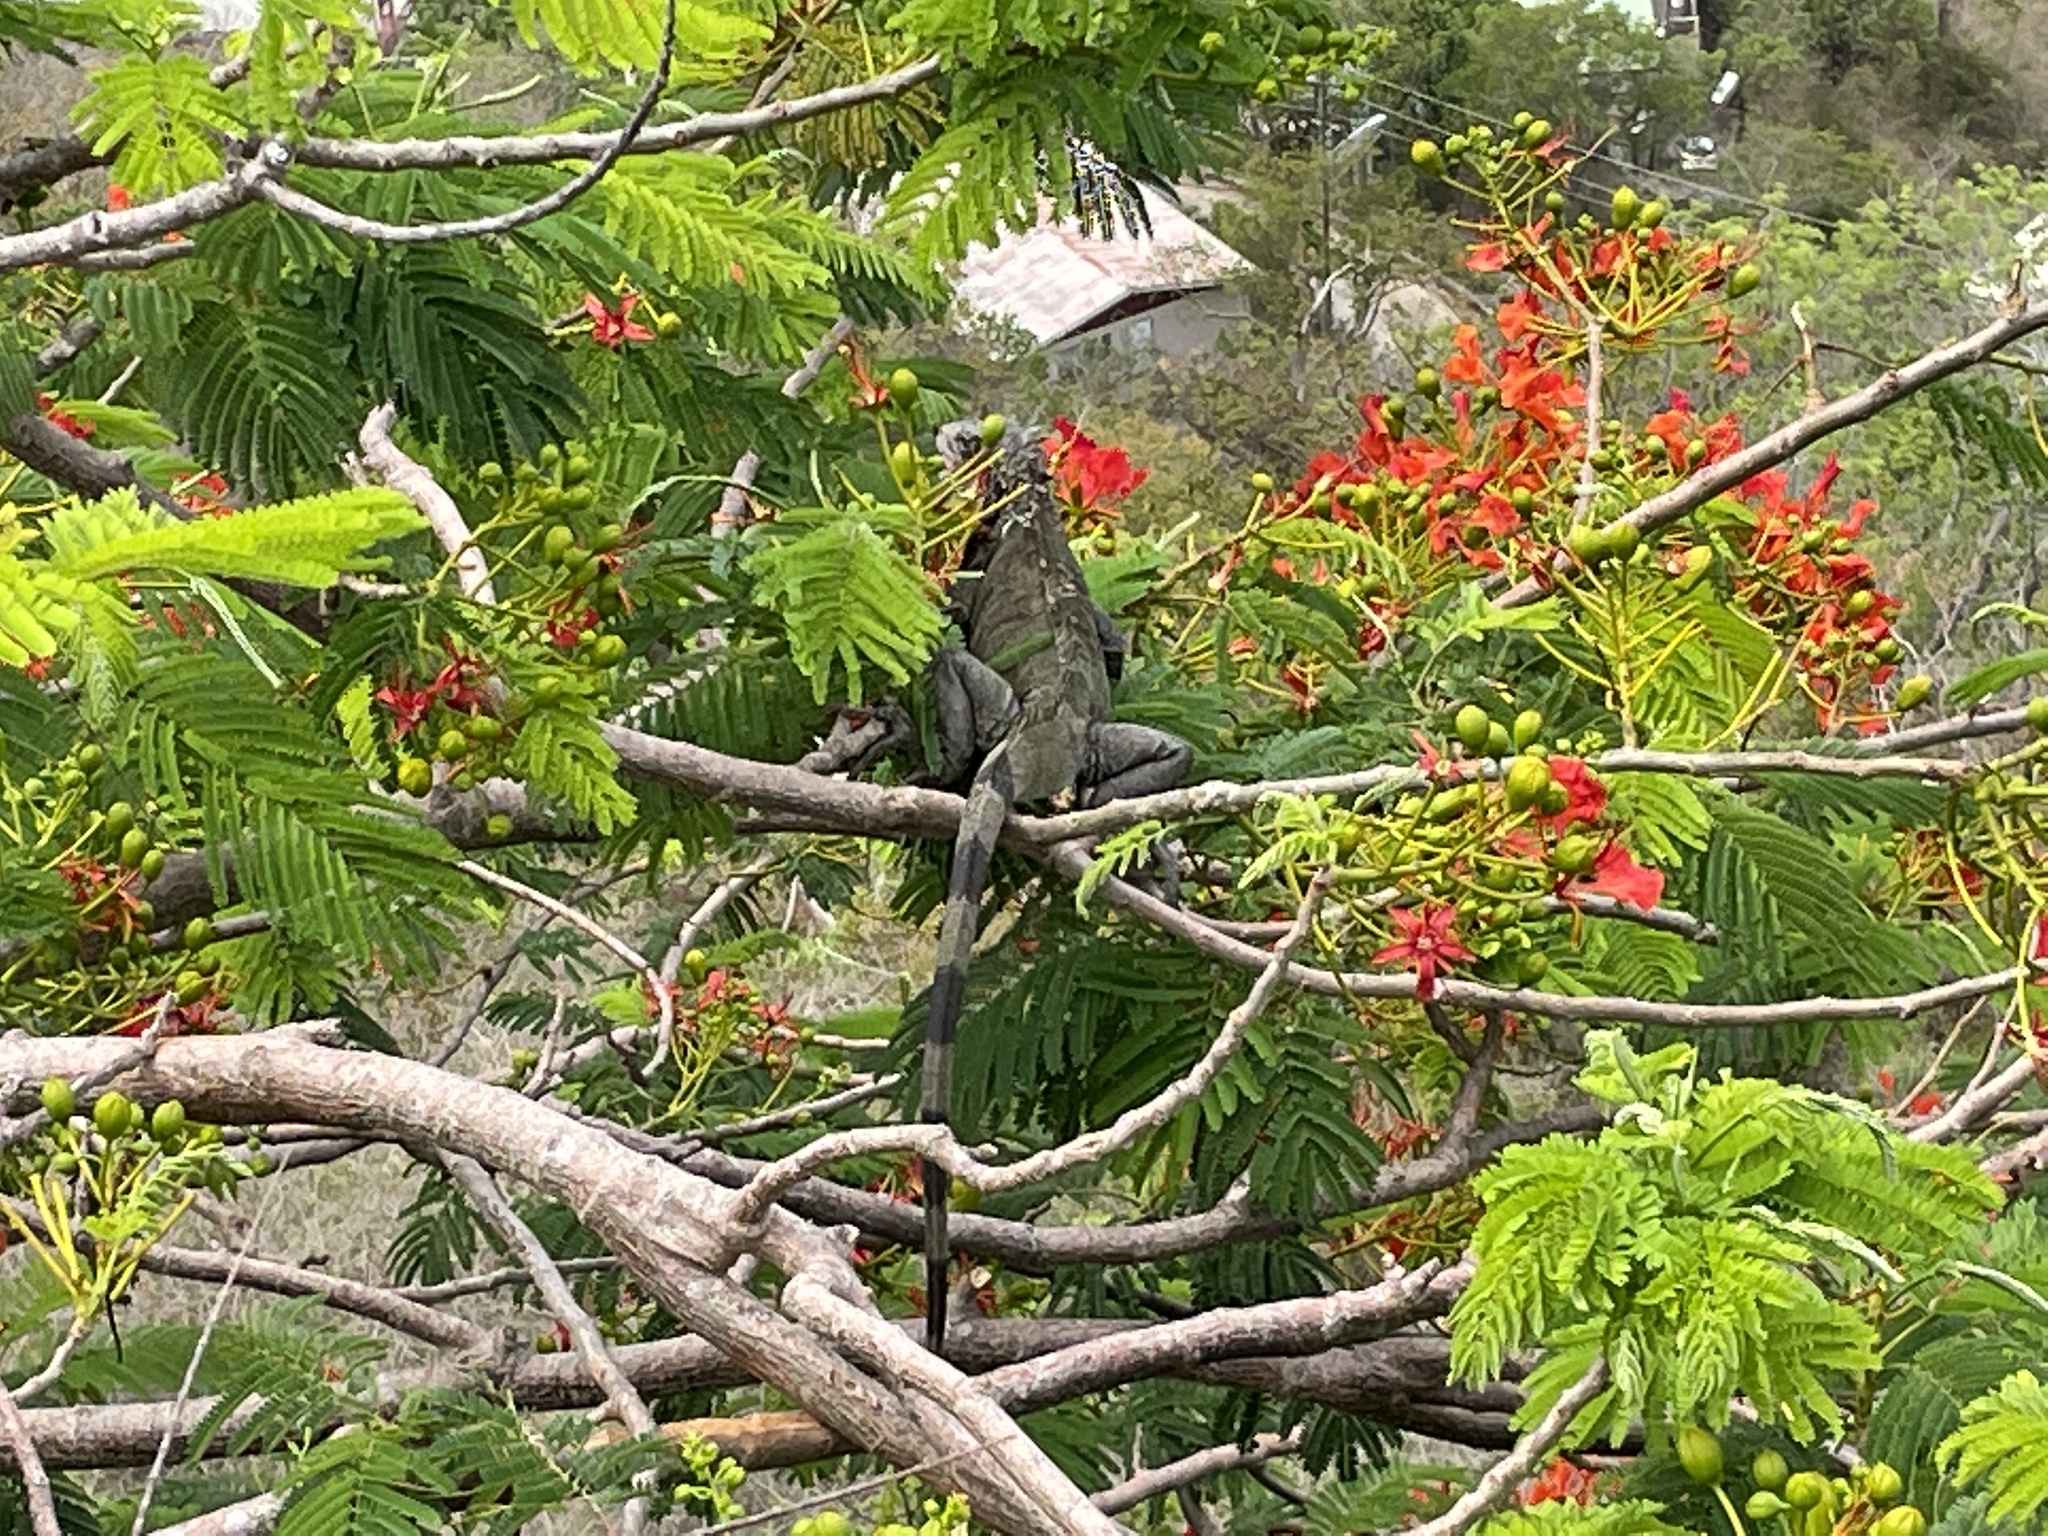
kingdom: Animalia
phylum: Chordata
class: Squamata
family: Iguanidae
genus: Iguana
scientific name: Iguana iguana
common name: Green iguana
